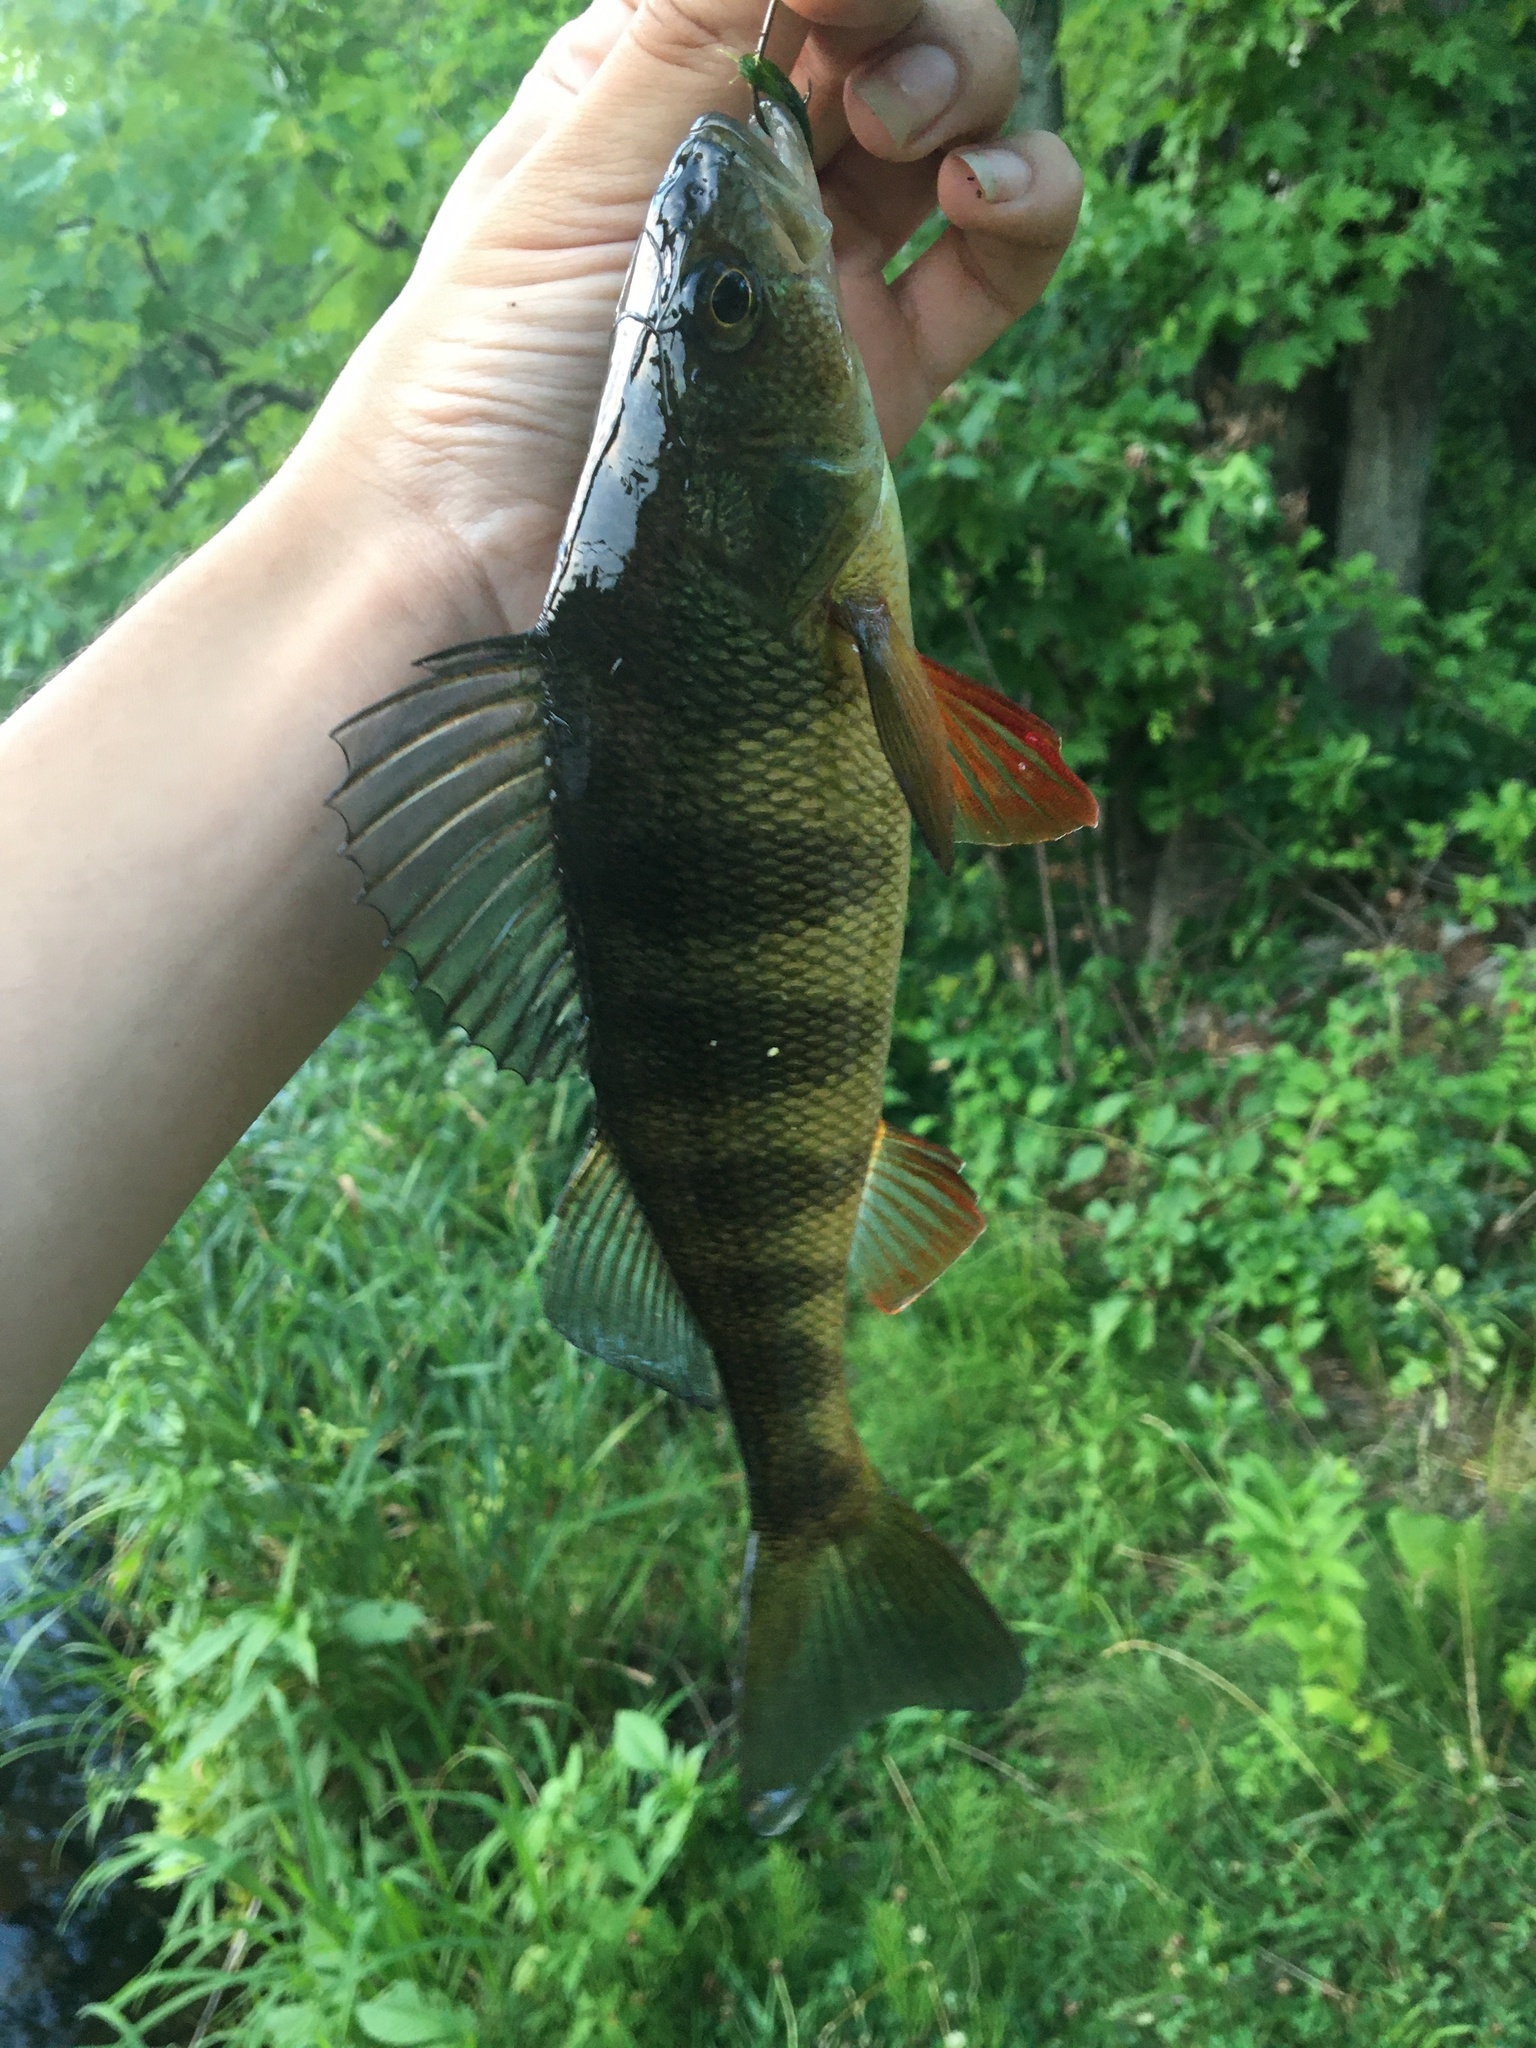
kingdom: Animalia
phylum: Chordata
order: Perciformes
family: Percidae
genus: Perca
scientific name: Perca flavescens
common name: Yellow perch
